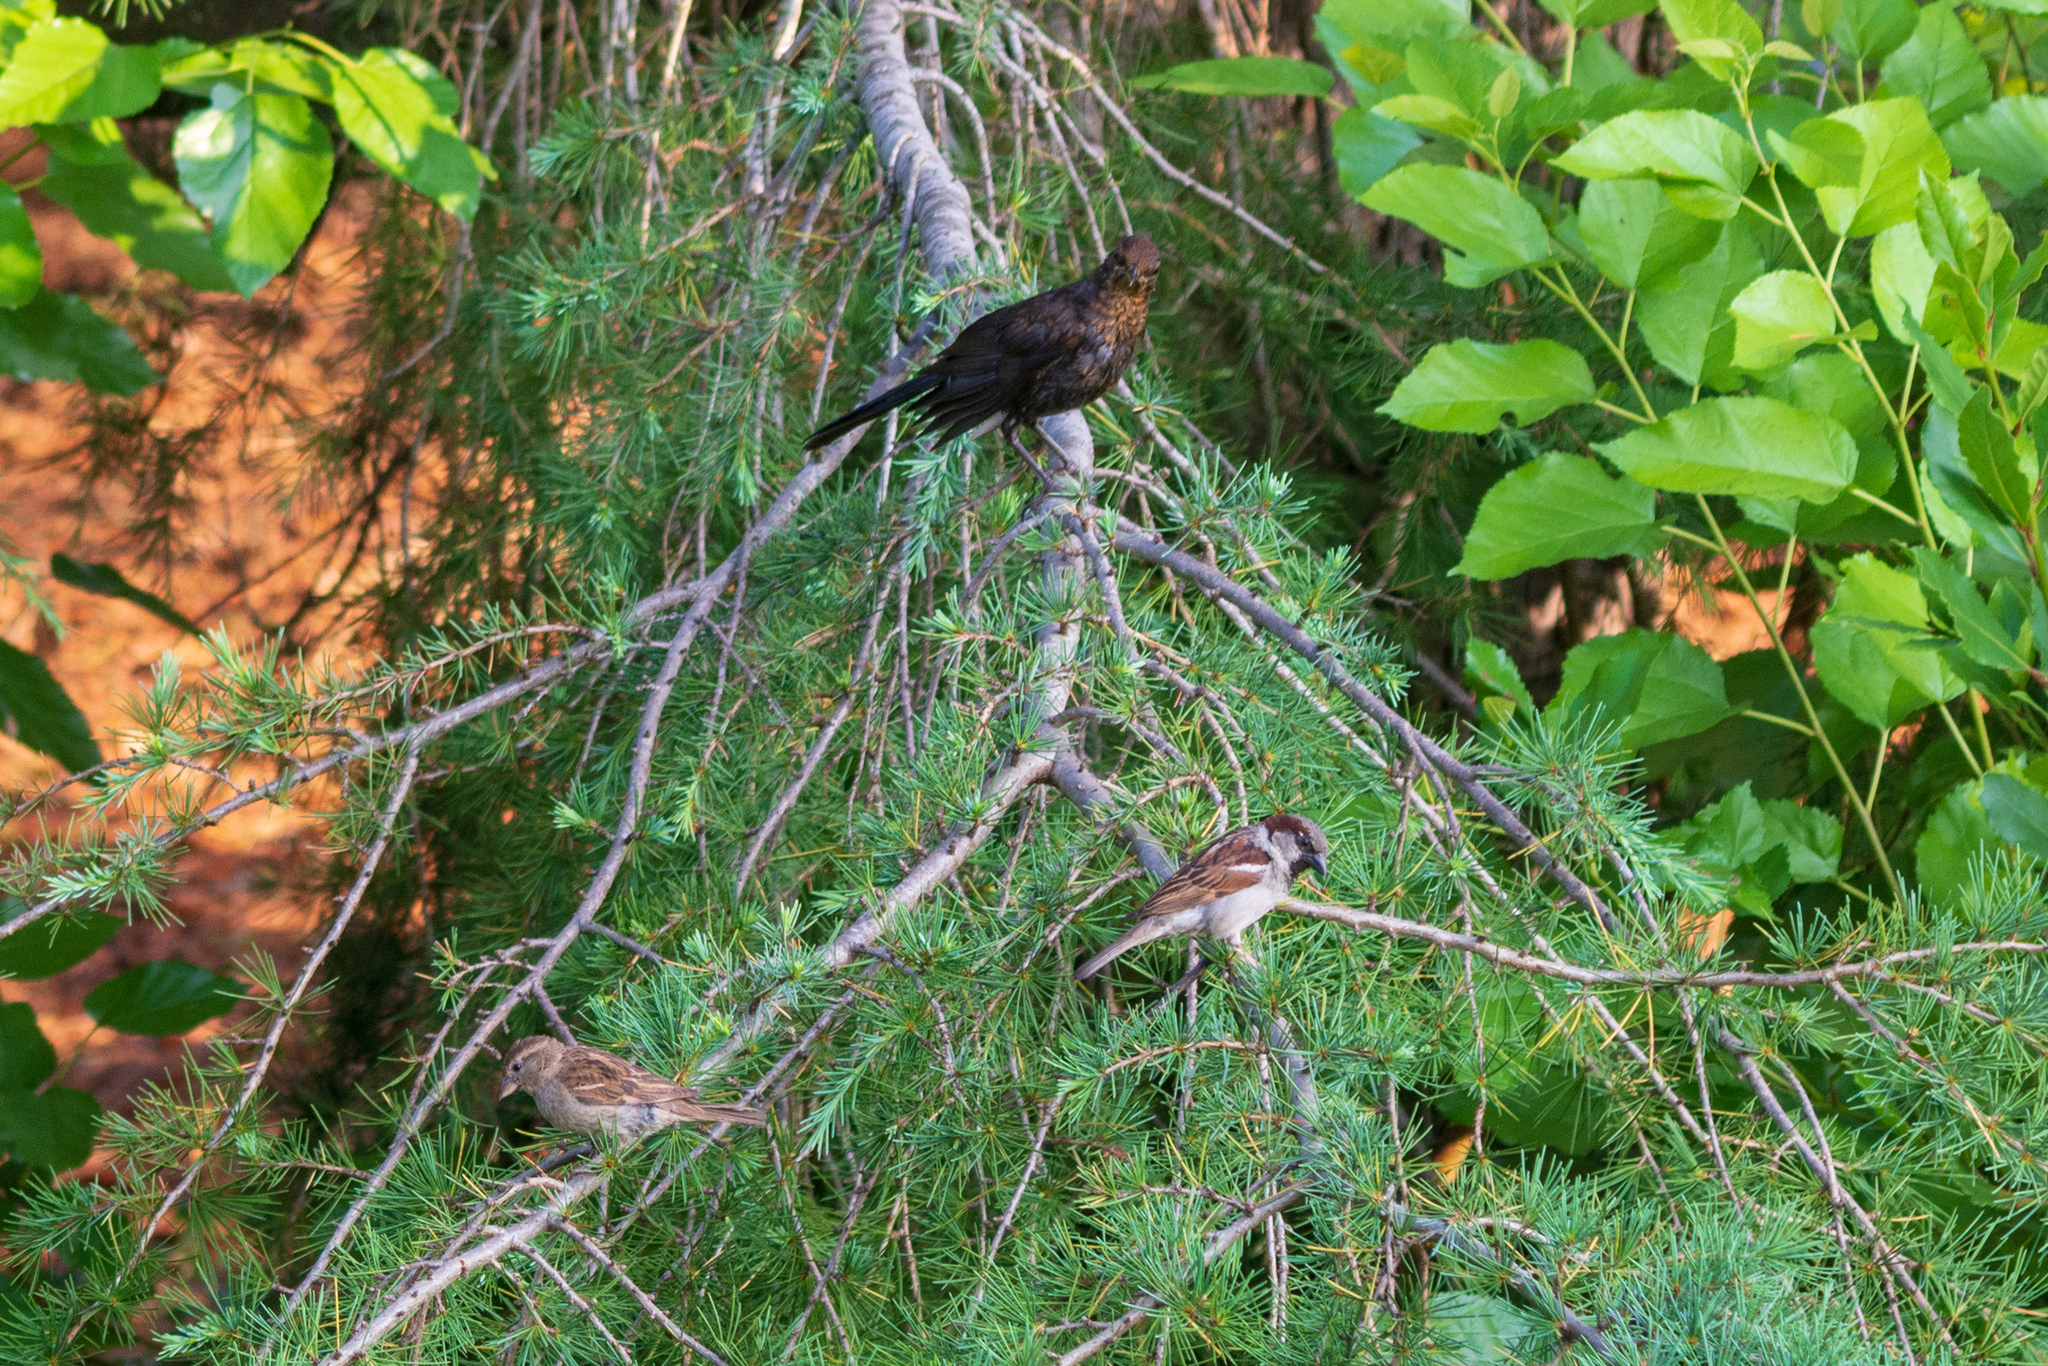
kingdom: Animalia
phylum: Chordata
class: Aves
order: Passeriformes
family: Turdidae
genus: Turdus
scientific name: Turdus merula
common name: Common blackbird
